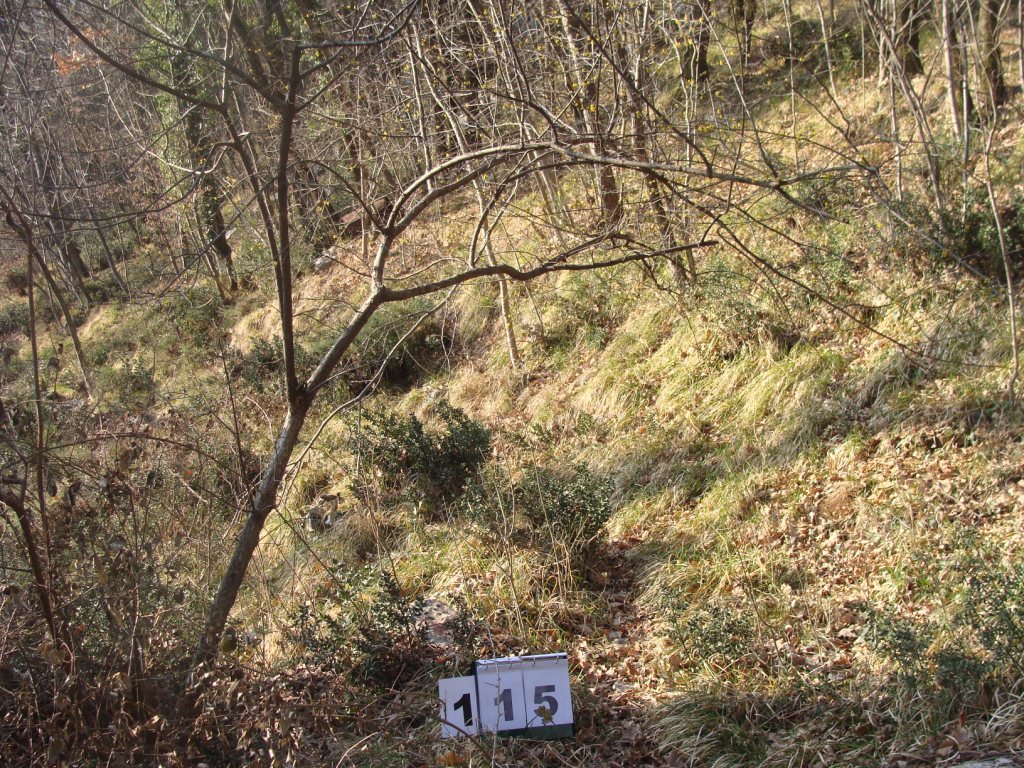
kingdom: Plantae
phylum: Tracheophyta
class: Magnoliopsida
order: Cornales
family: Cornaceae
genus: Cornus
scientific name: Cornus mas
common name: Cornelian-cherry
